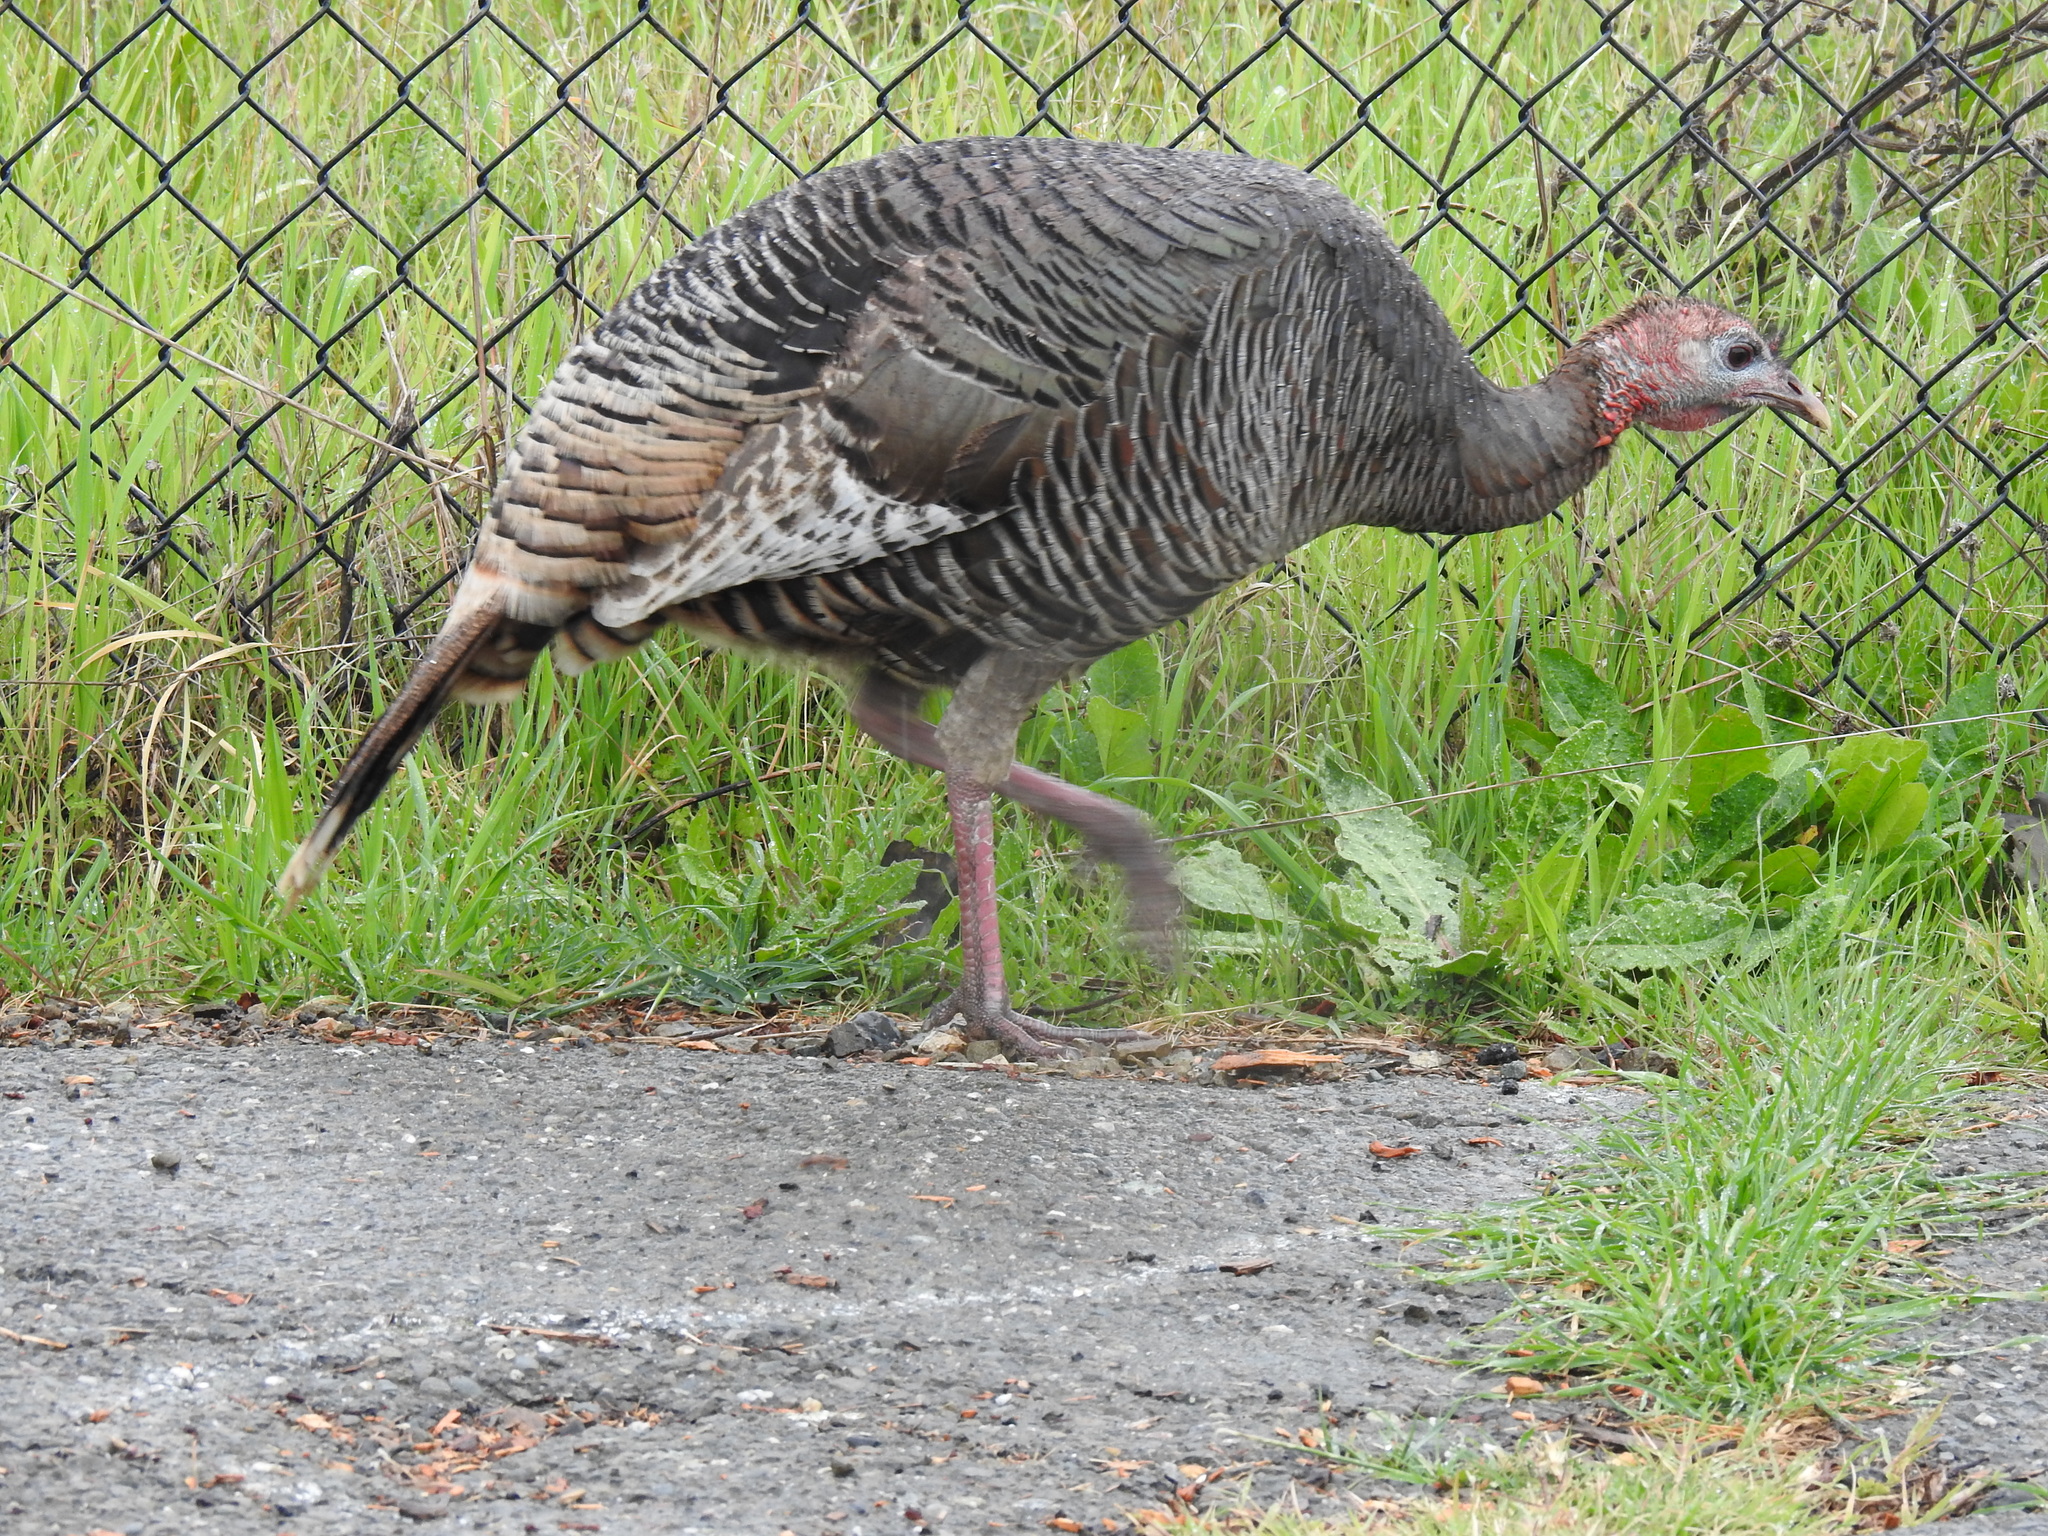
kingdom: Animalia
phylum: Chordata
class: Aves
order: Galliformes
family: Phasianidae
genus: Meleagris
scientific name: Meleagris gallopavo
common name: Wild turkey
